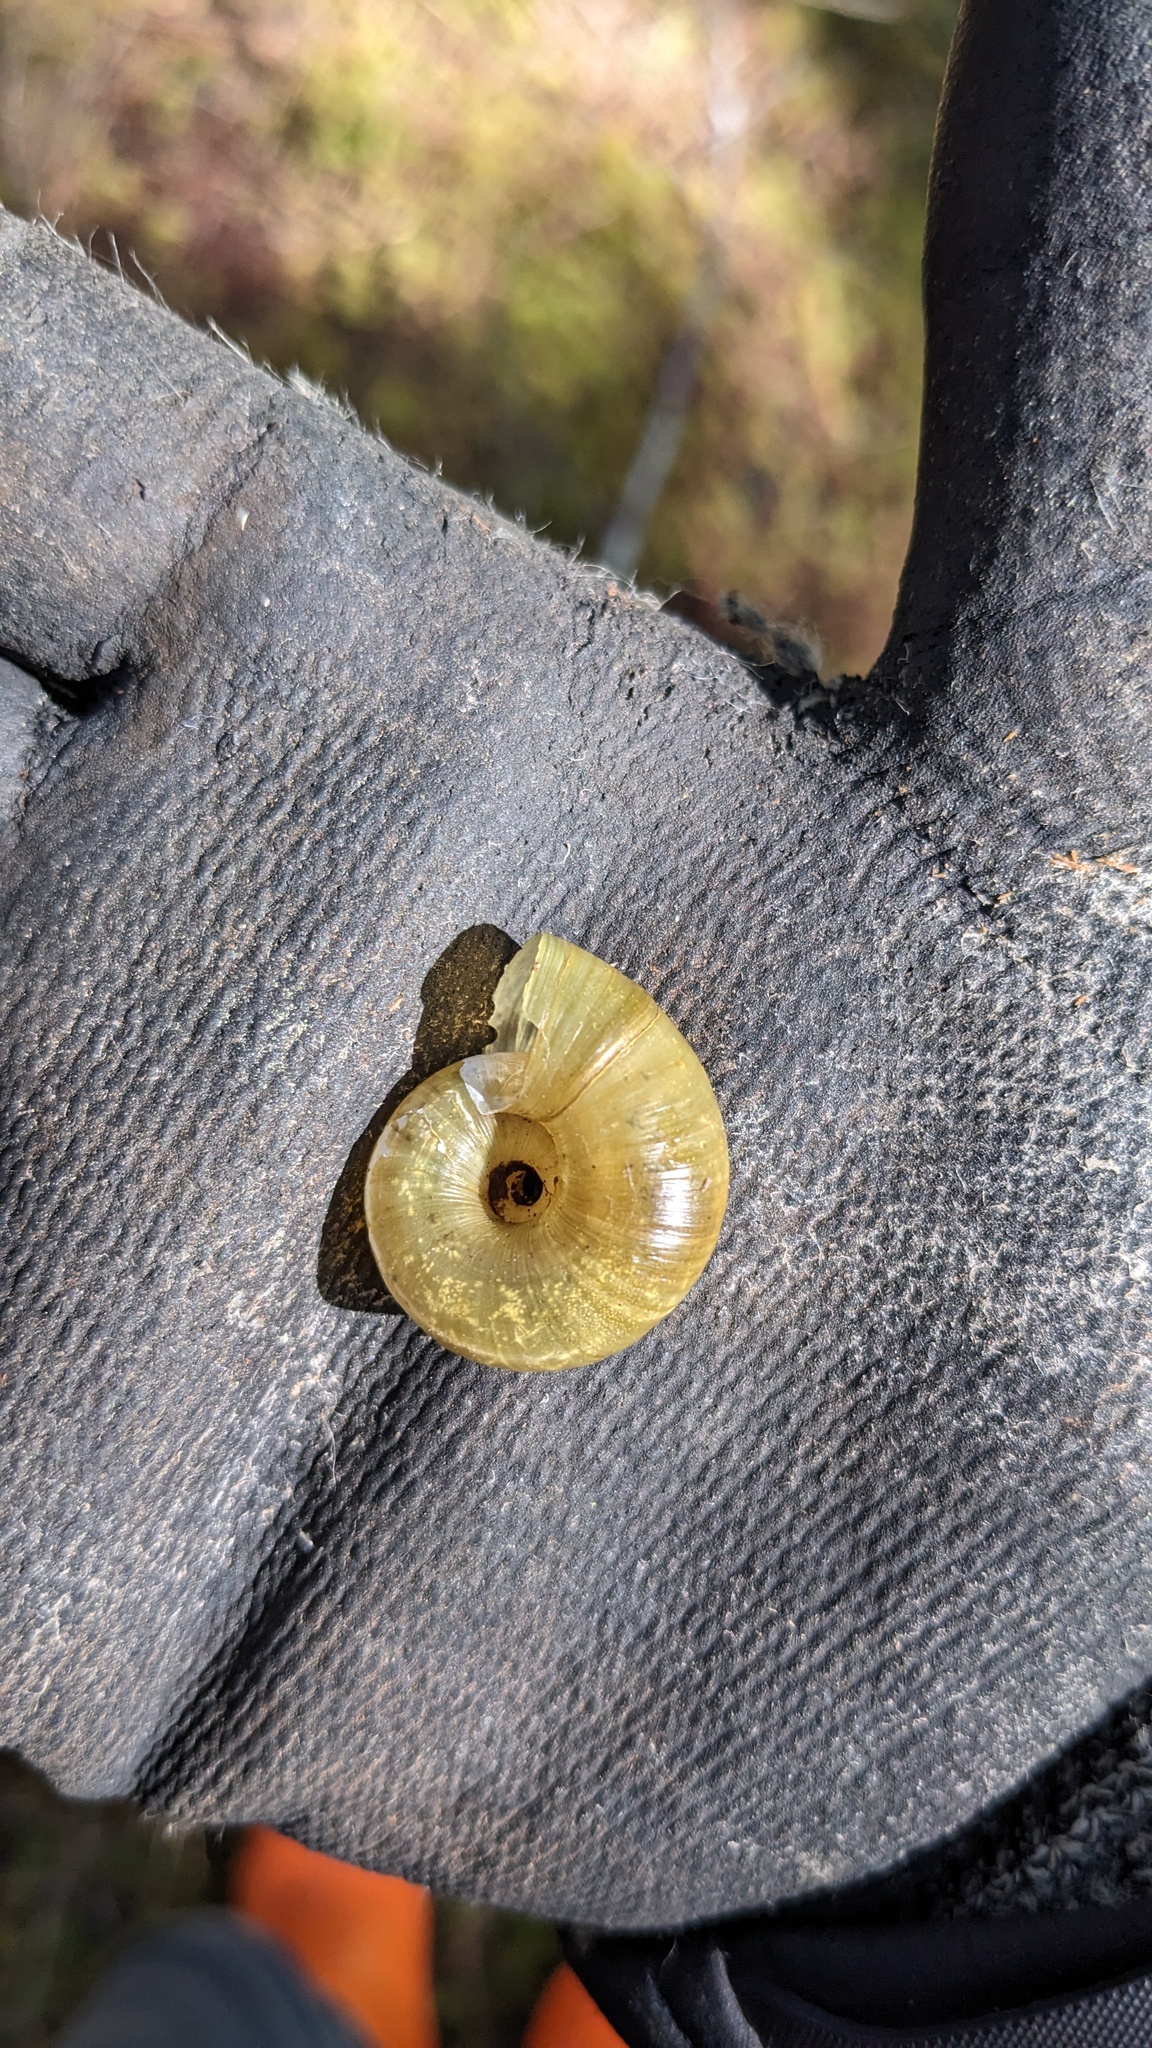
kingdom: Animalia
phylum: Mollusca
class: Gastropoda
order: Stylommatophora
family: Haplotrematidae
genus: Haplotrema
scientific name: Haplotrema vancouverense
